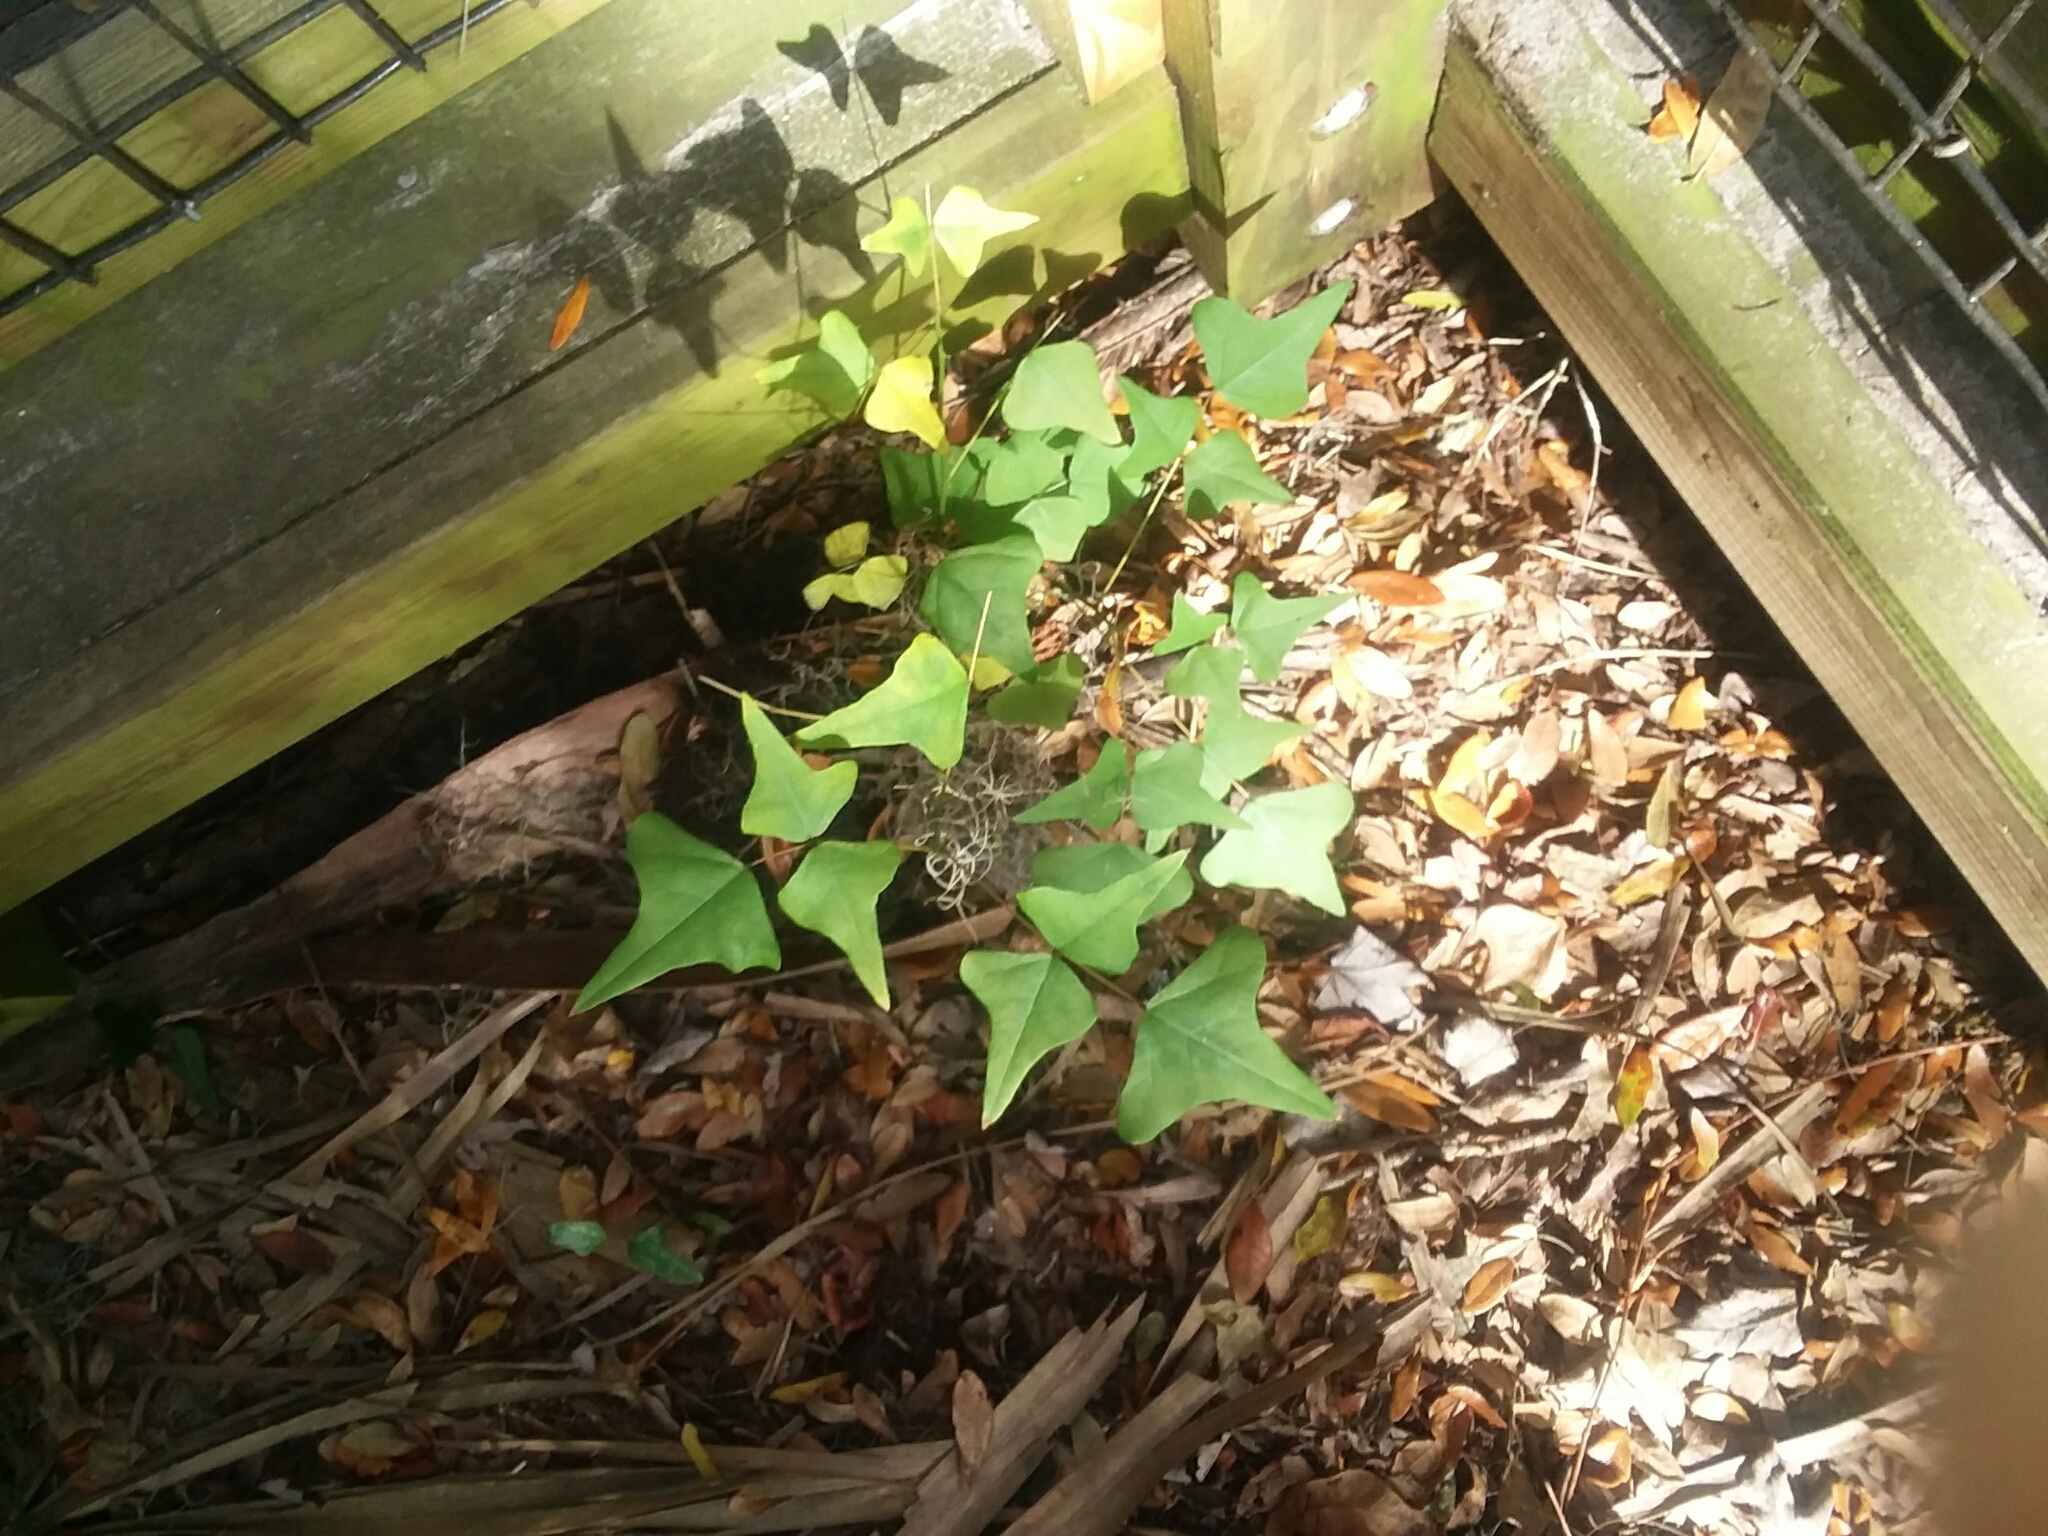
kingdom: Plantae
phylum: Tracheophyta
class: Magnoliopsida
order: Fabales
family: Fabaceae
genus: Erythrina
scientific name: Erythrina herbacea
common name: Coral-bean
